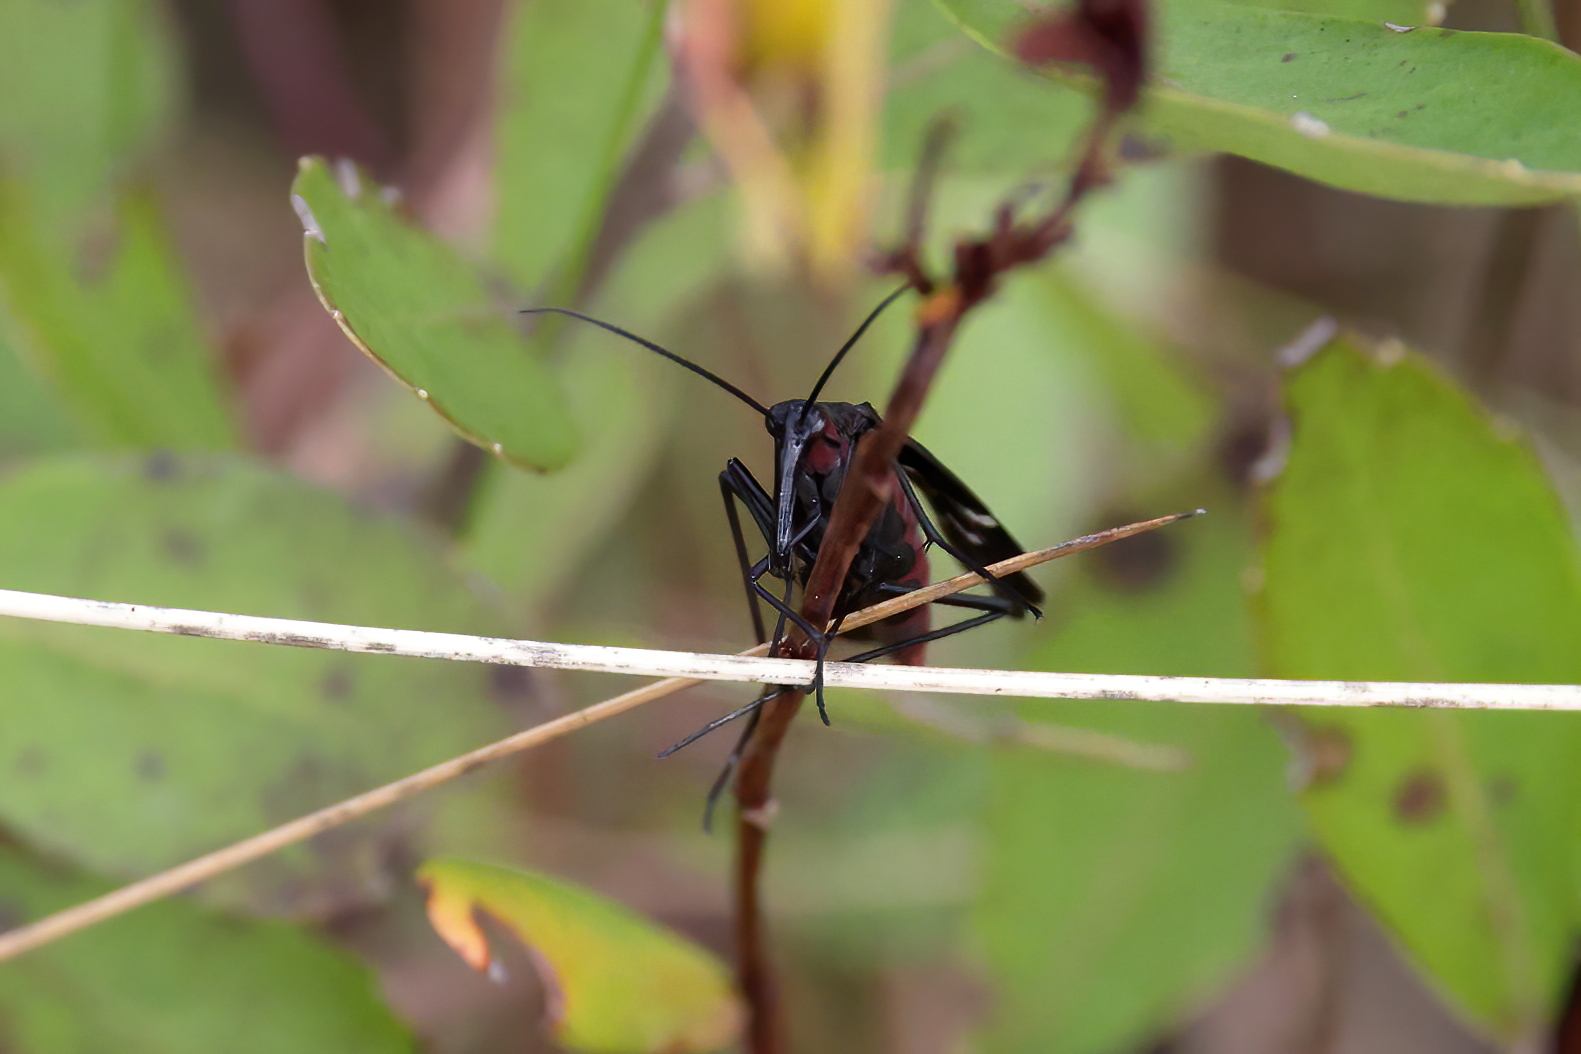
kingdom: Animalia
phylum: Arthropoda
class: Insecta
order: Mecoptera
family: Panorpidae
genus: Panorpa
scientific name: Panorpa lugubris
